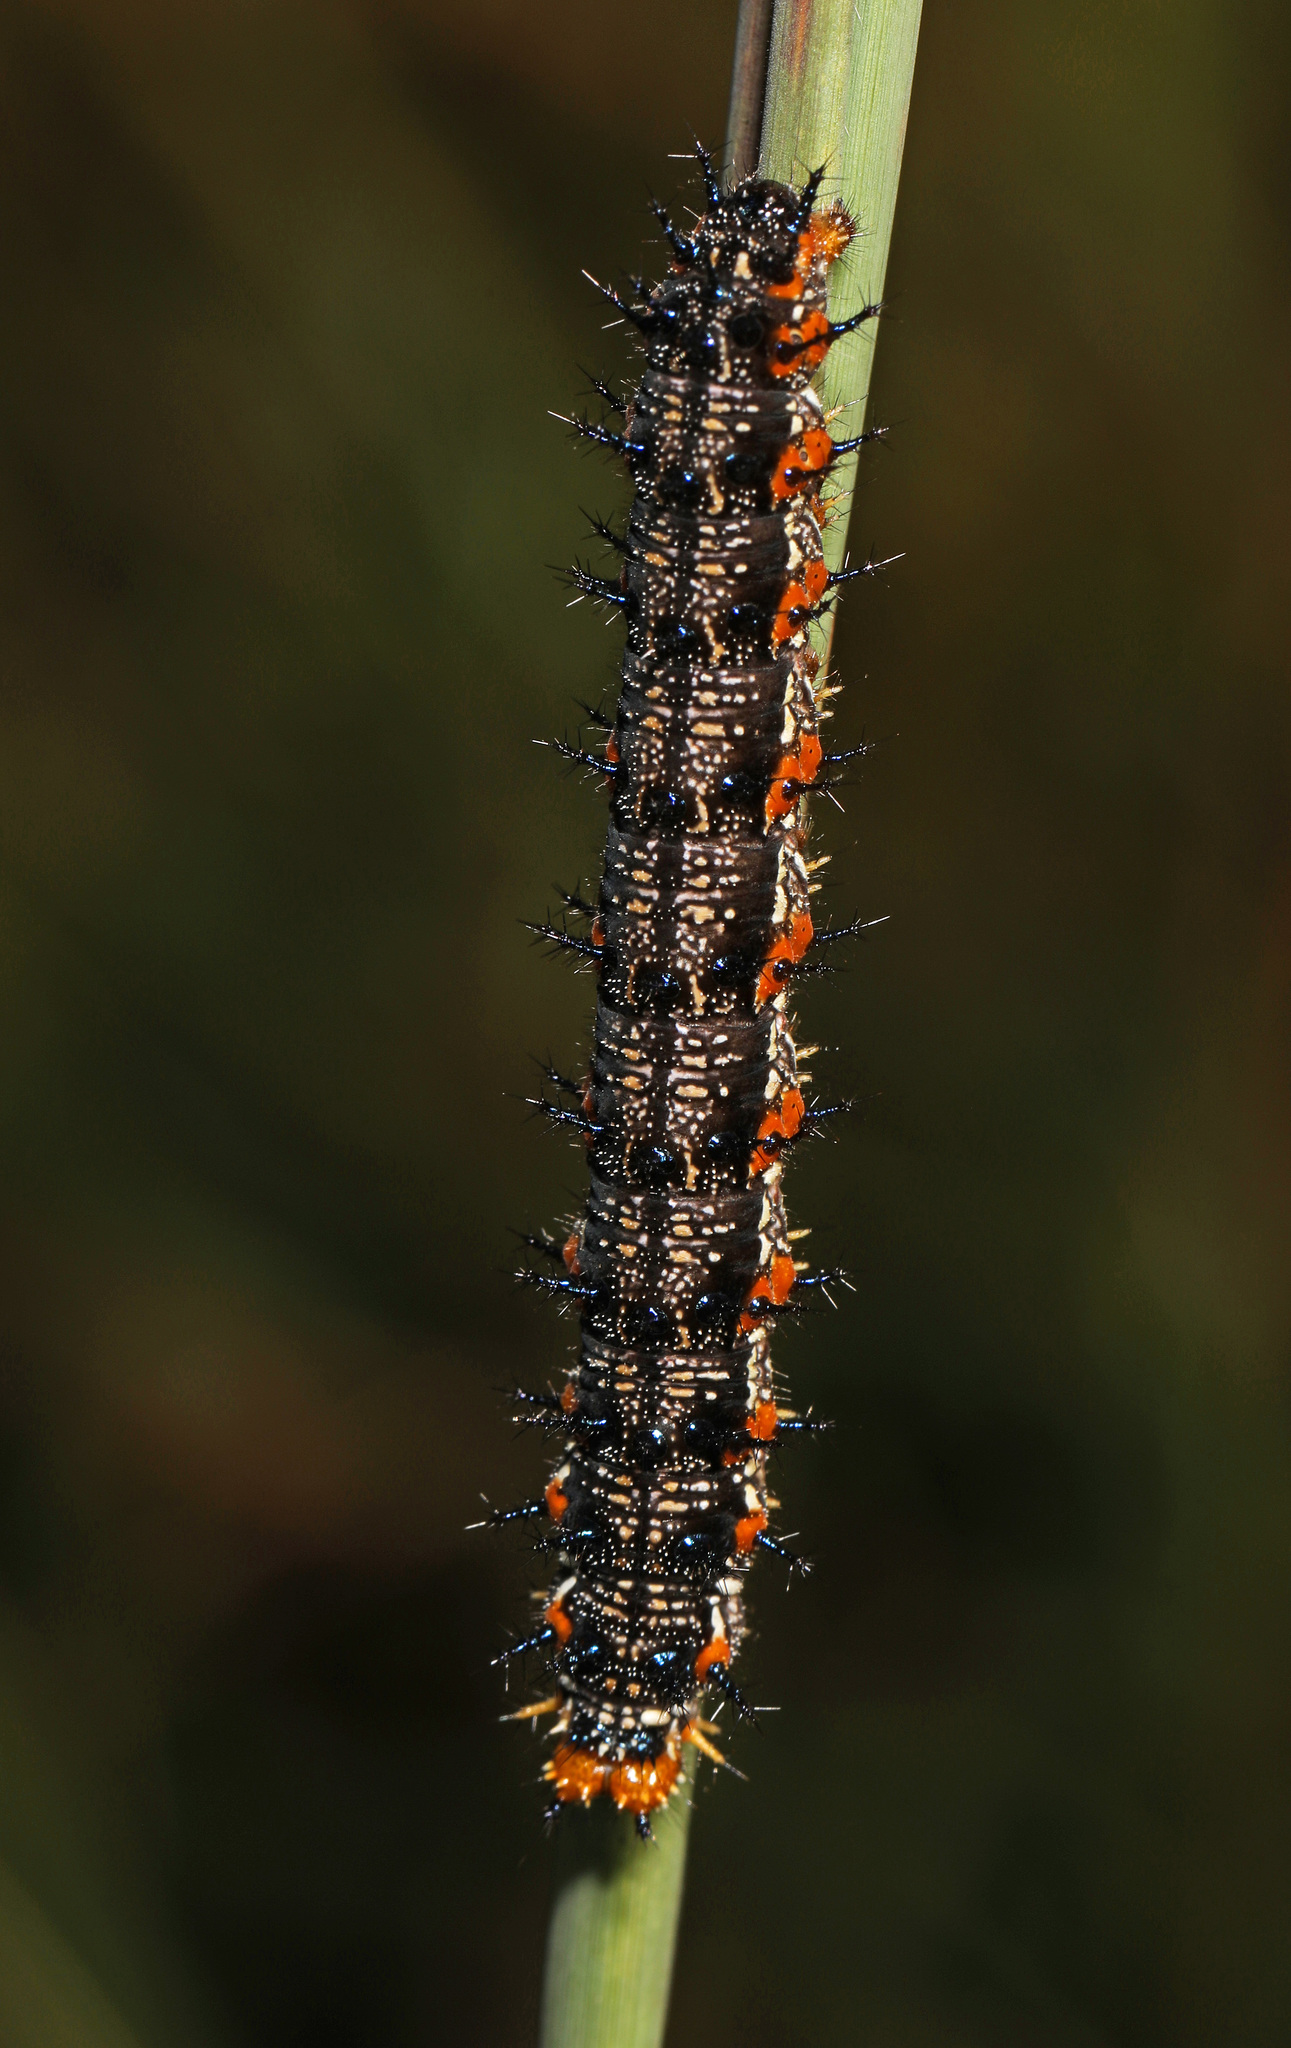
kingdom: Animalia
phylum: Arthropoda
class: Insecta
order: Lepidoptera
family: Nymphalidae
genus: Junonia
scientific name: Junonia coenia
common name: Common buckeye
